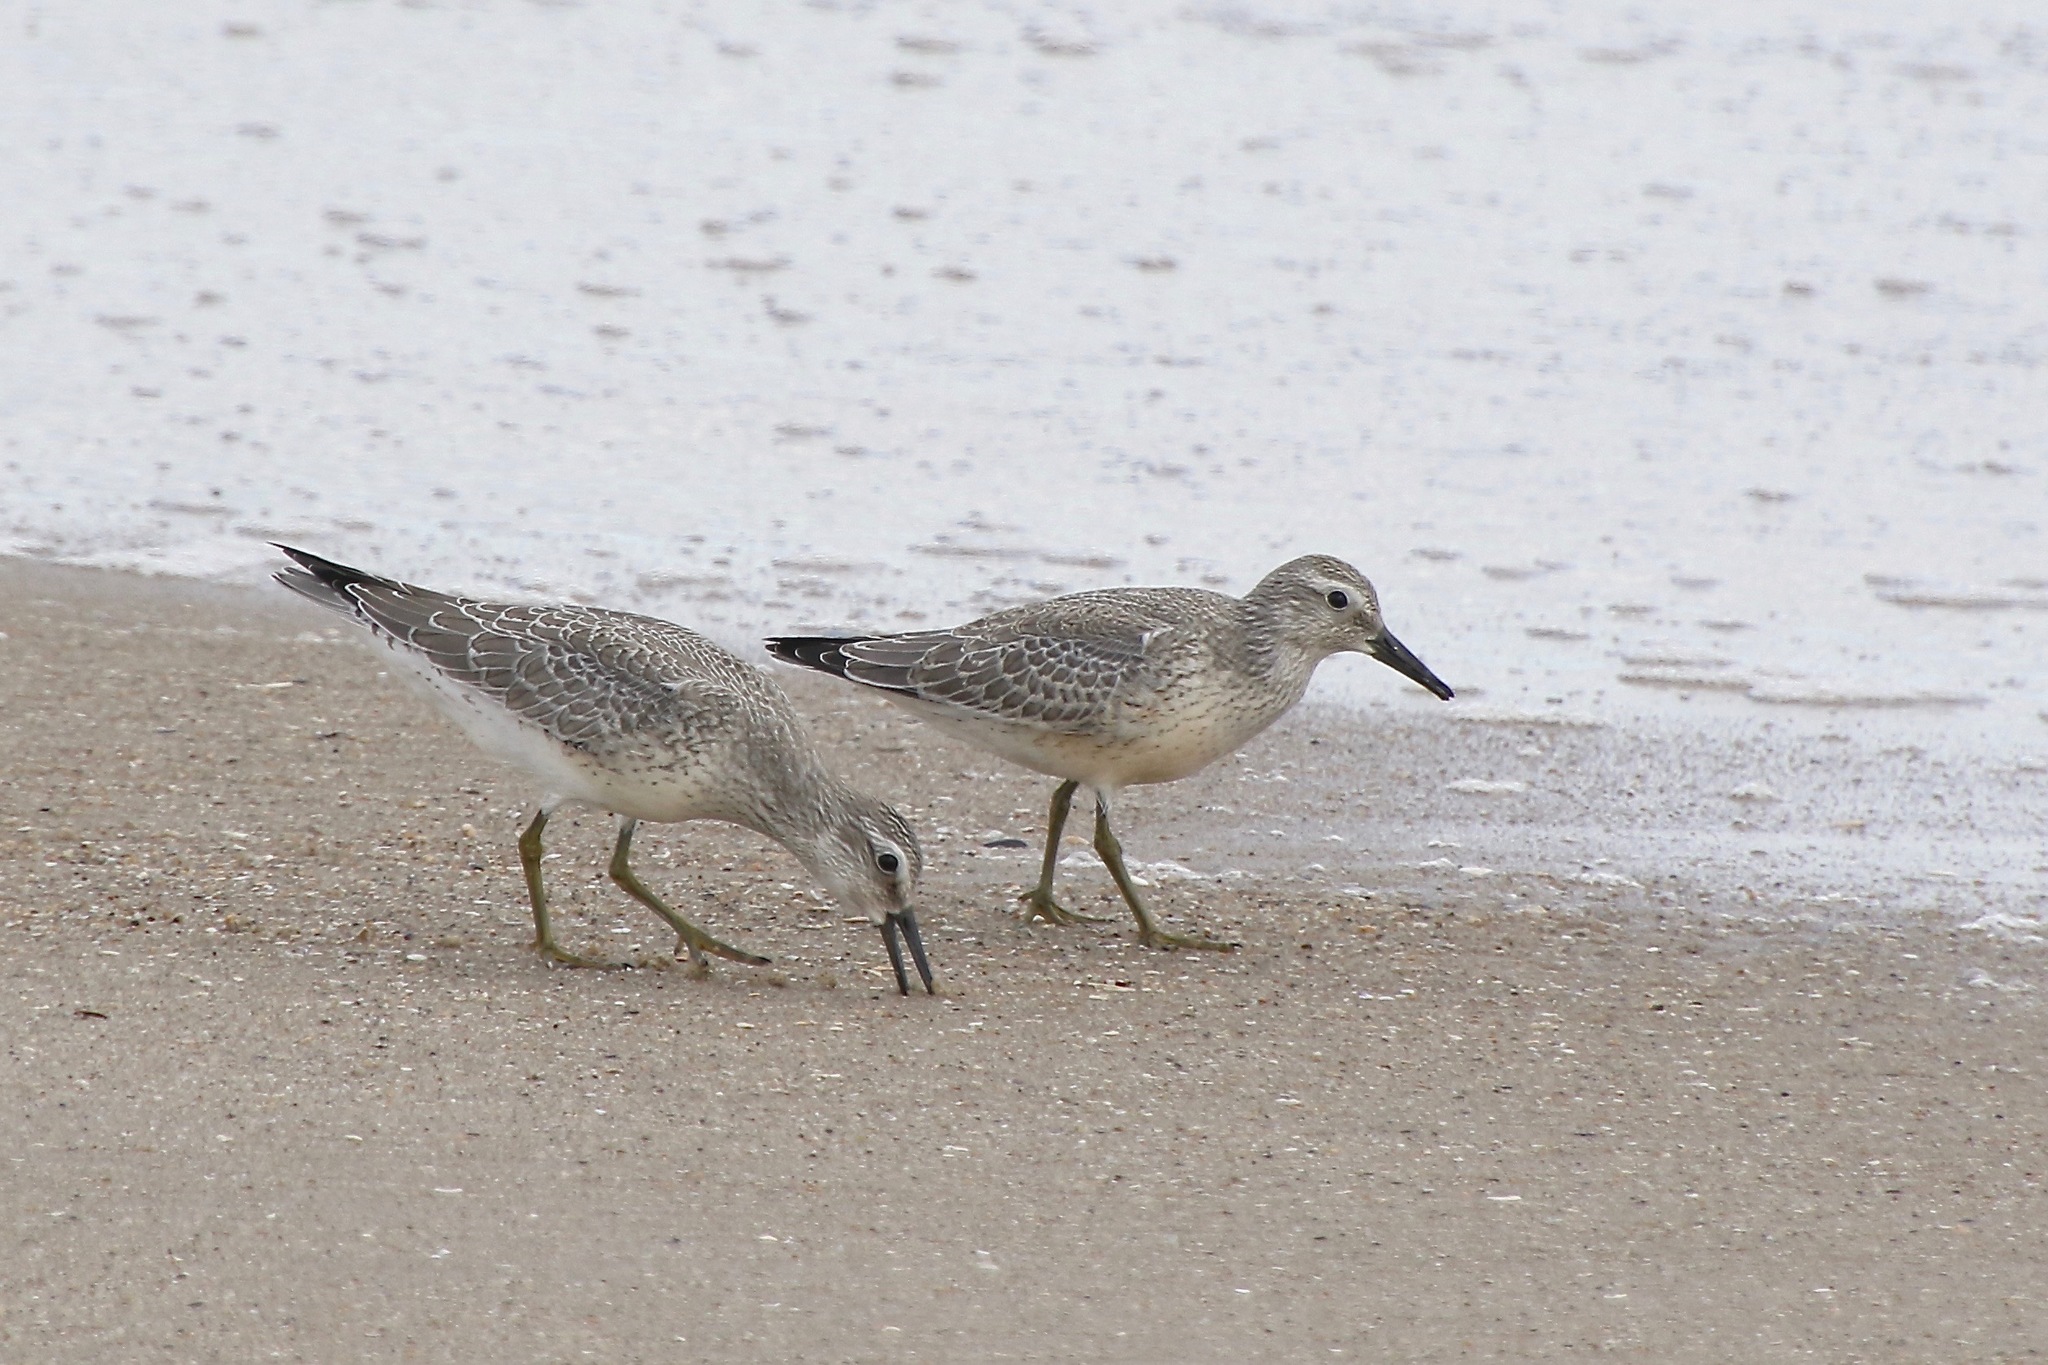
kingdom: Animalia
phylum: Chordata
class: Aves
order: Charadriiformes
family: Scolopacidae
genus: Calidris
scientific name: Calidris canutus
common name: Red knot
